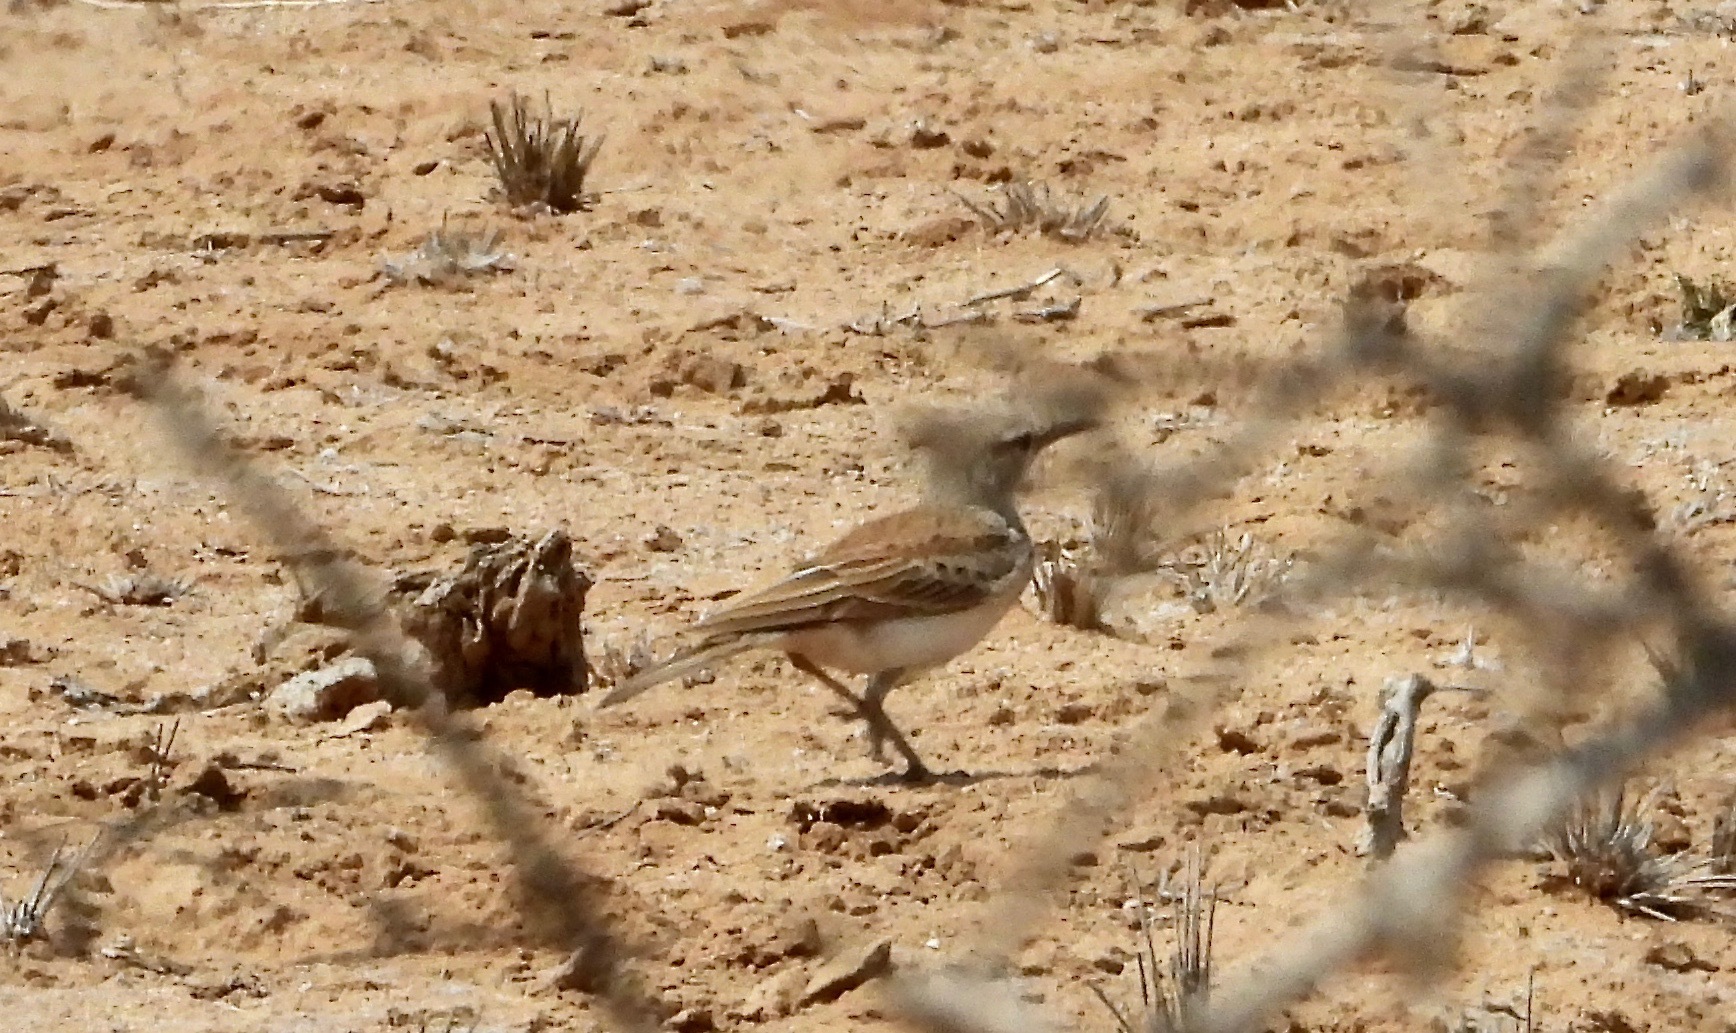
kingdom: Animalia
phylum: Chordata
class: Aves
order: Passeriformes
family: Alaudidae
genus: Certhilauda
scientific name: Certhilauda subcoronata
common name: Karoo long-billed lark
